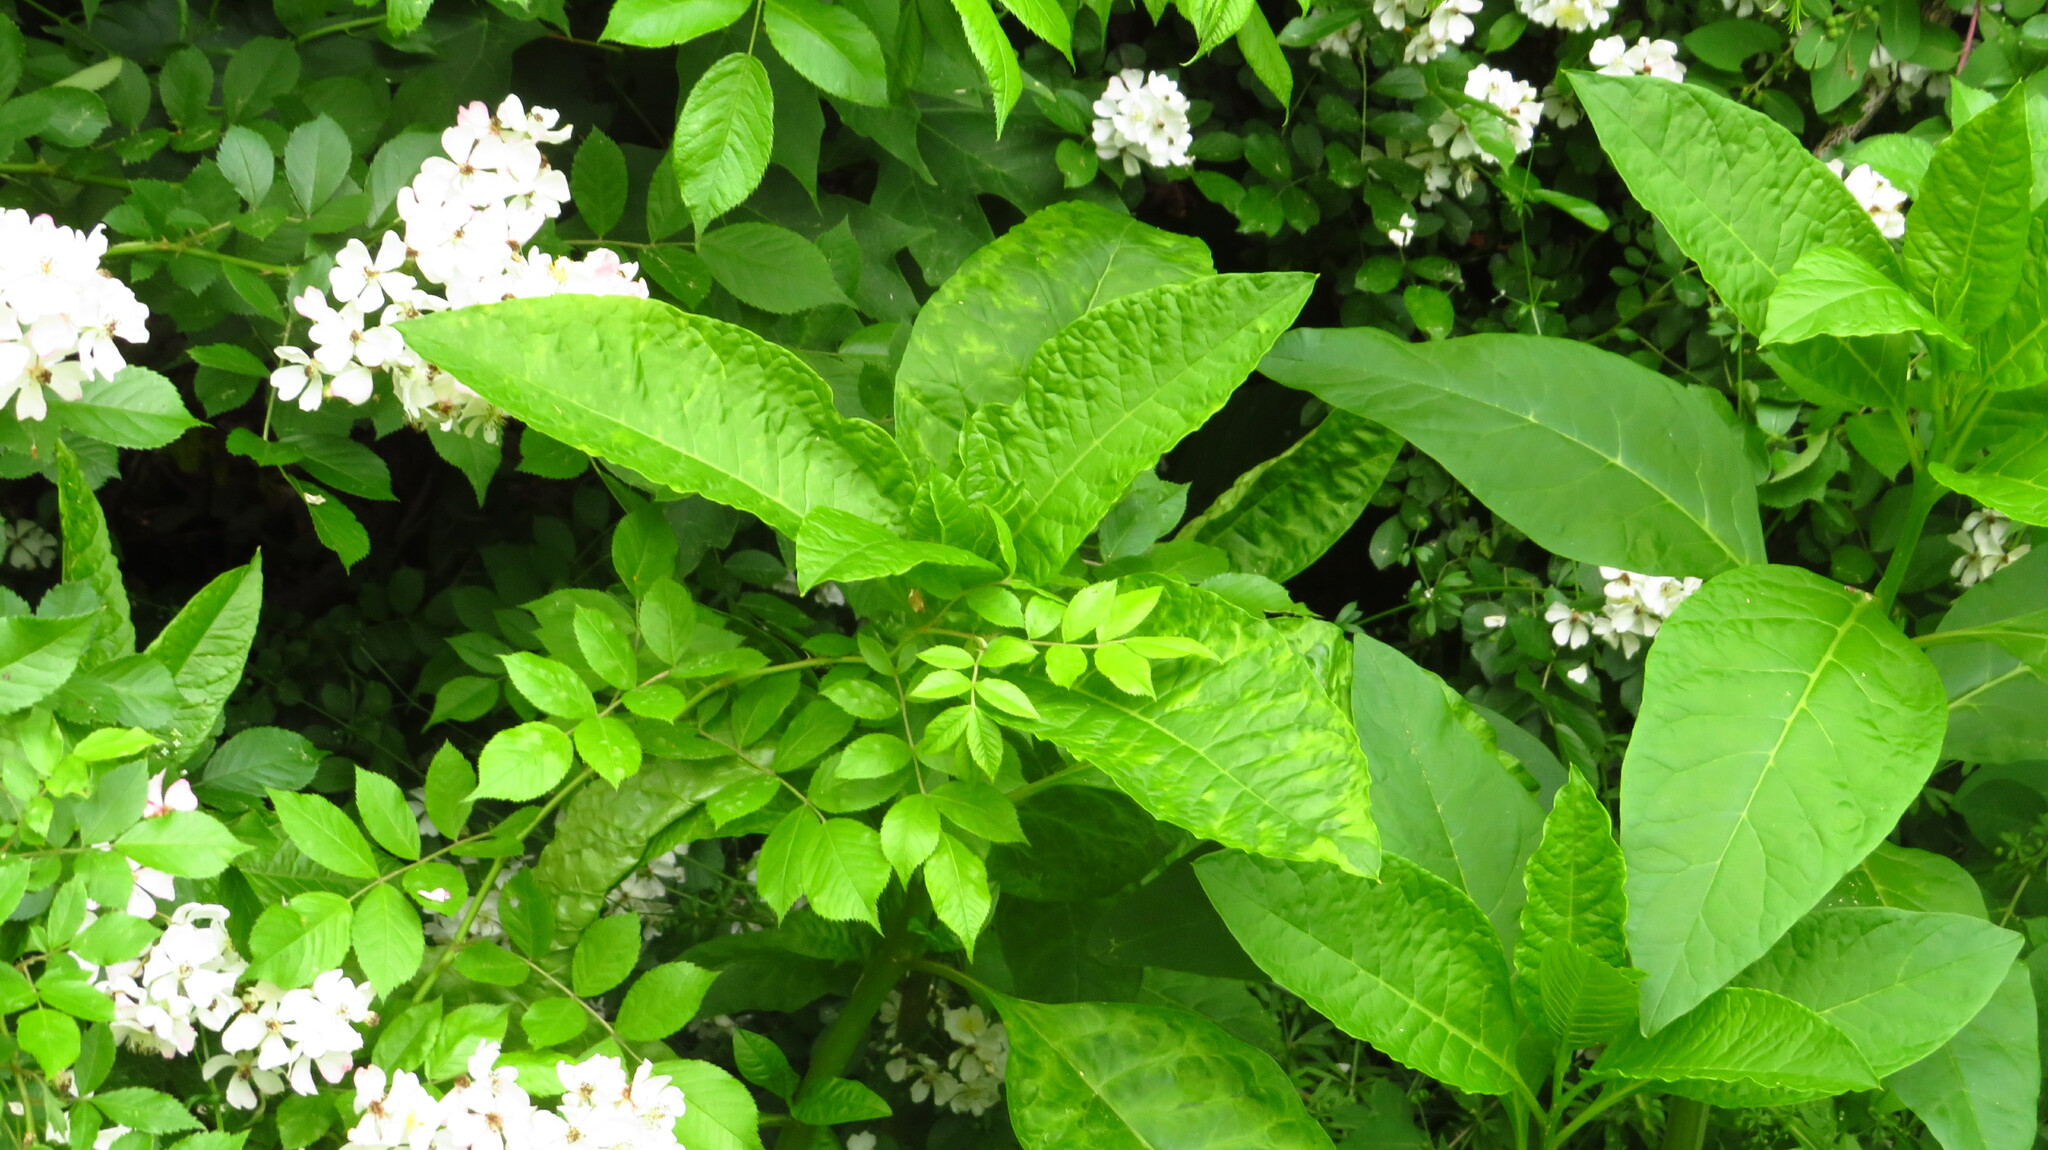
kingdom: Plantae
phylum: Tracheophyta
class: Magnoliopsida
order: Caryophyllales
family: Phytolaccaceae
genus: Phytolacca
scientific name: Phytolacca americana
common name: American pokeweed
